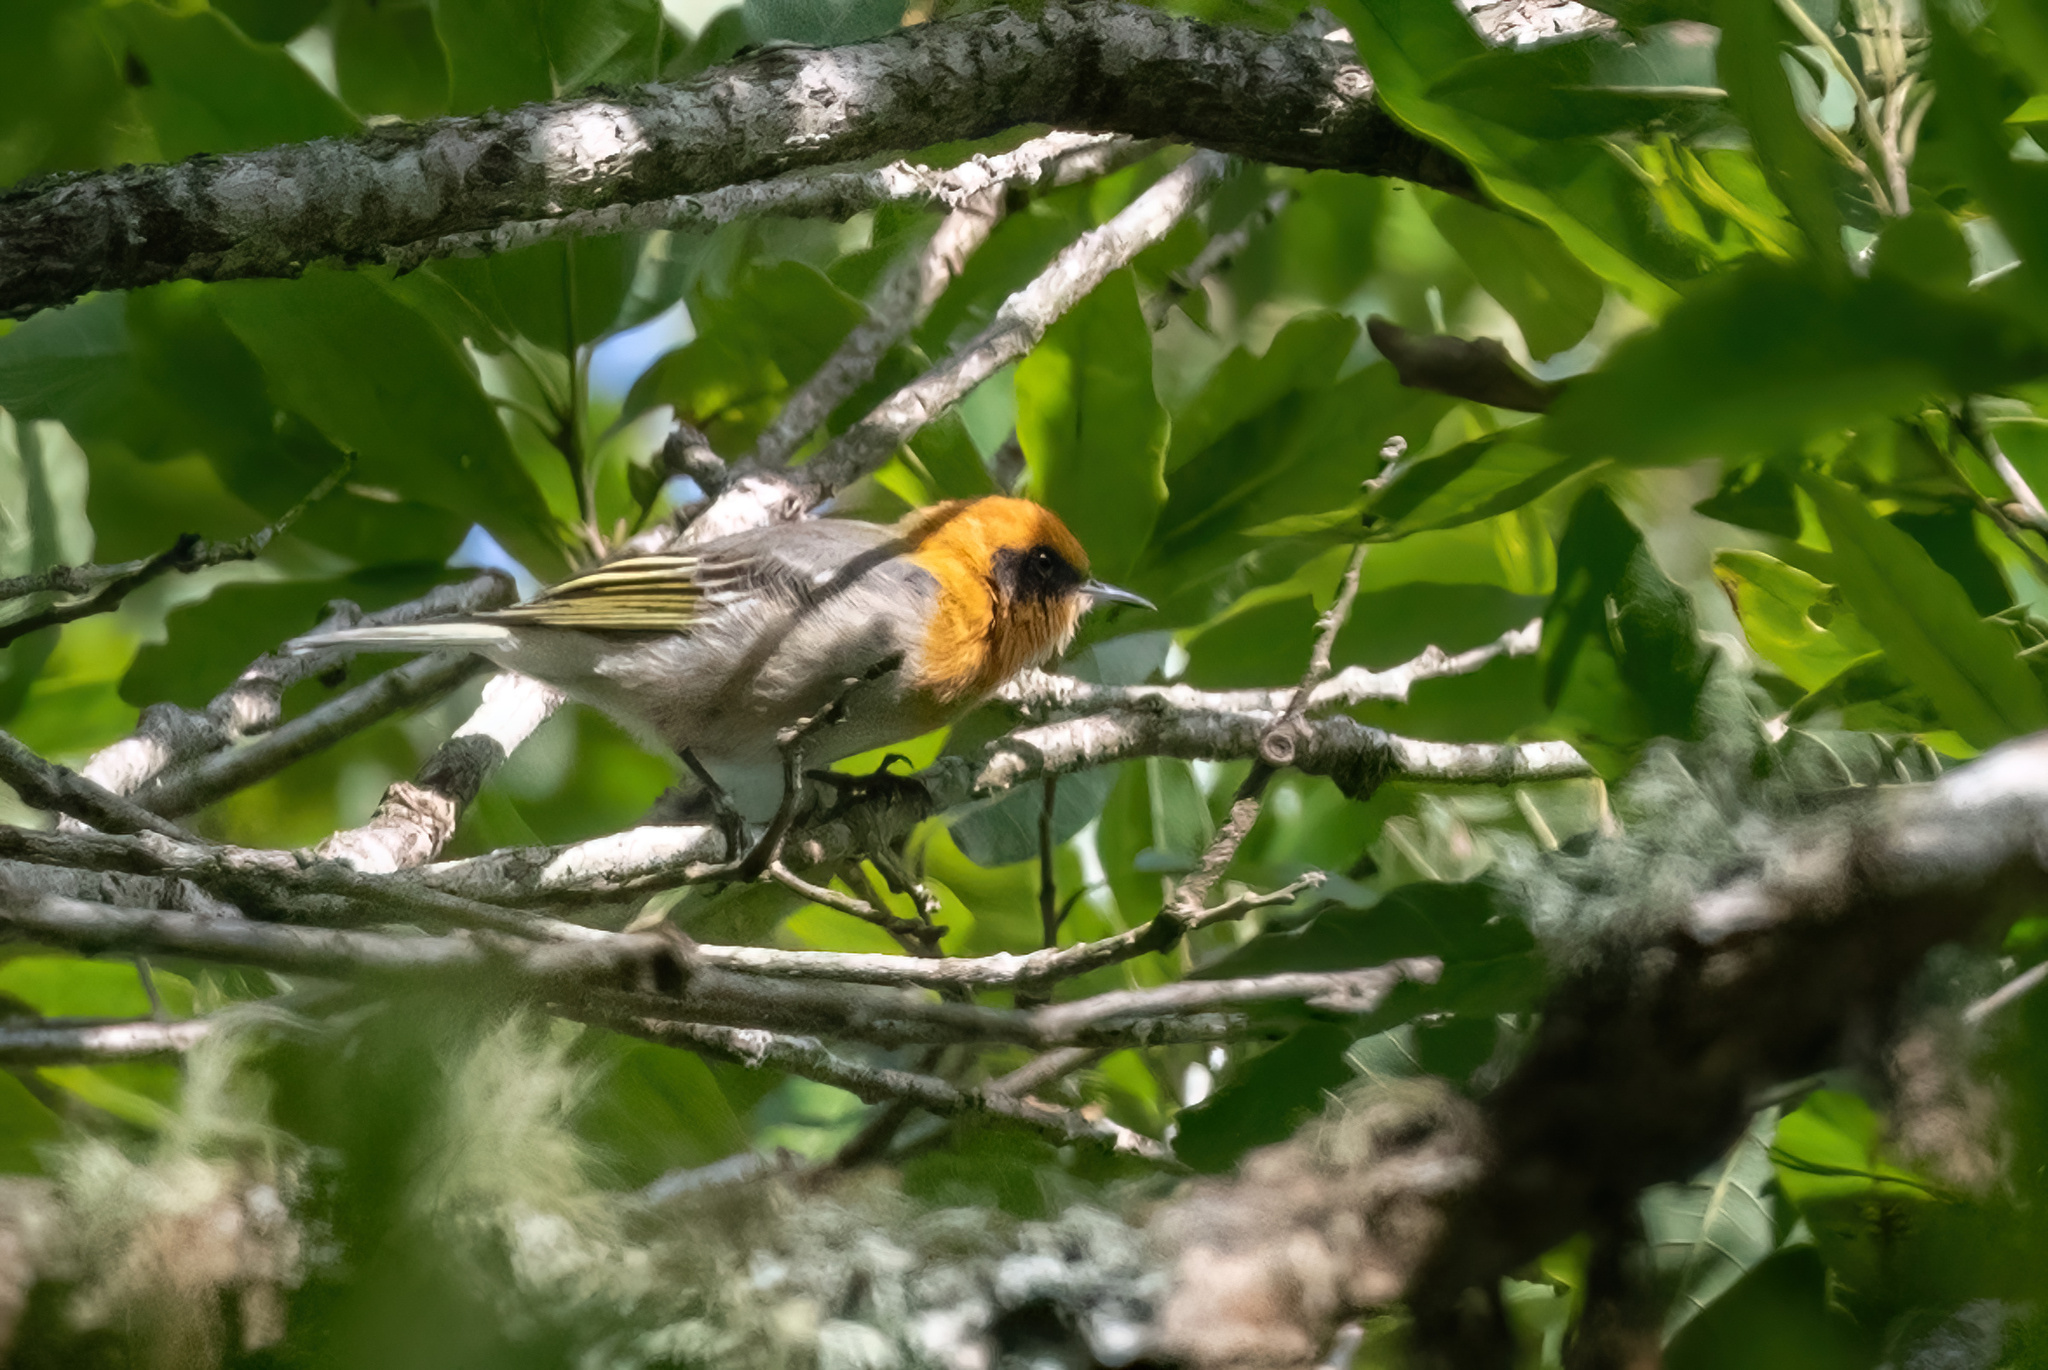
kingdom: Animalia
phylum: Chordata
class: Aves
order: Passeriformes
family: Peucedramidae
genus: Peucedramus
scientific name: Peucedramus taeniatus
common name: Olive warbler
